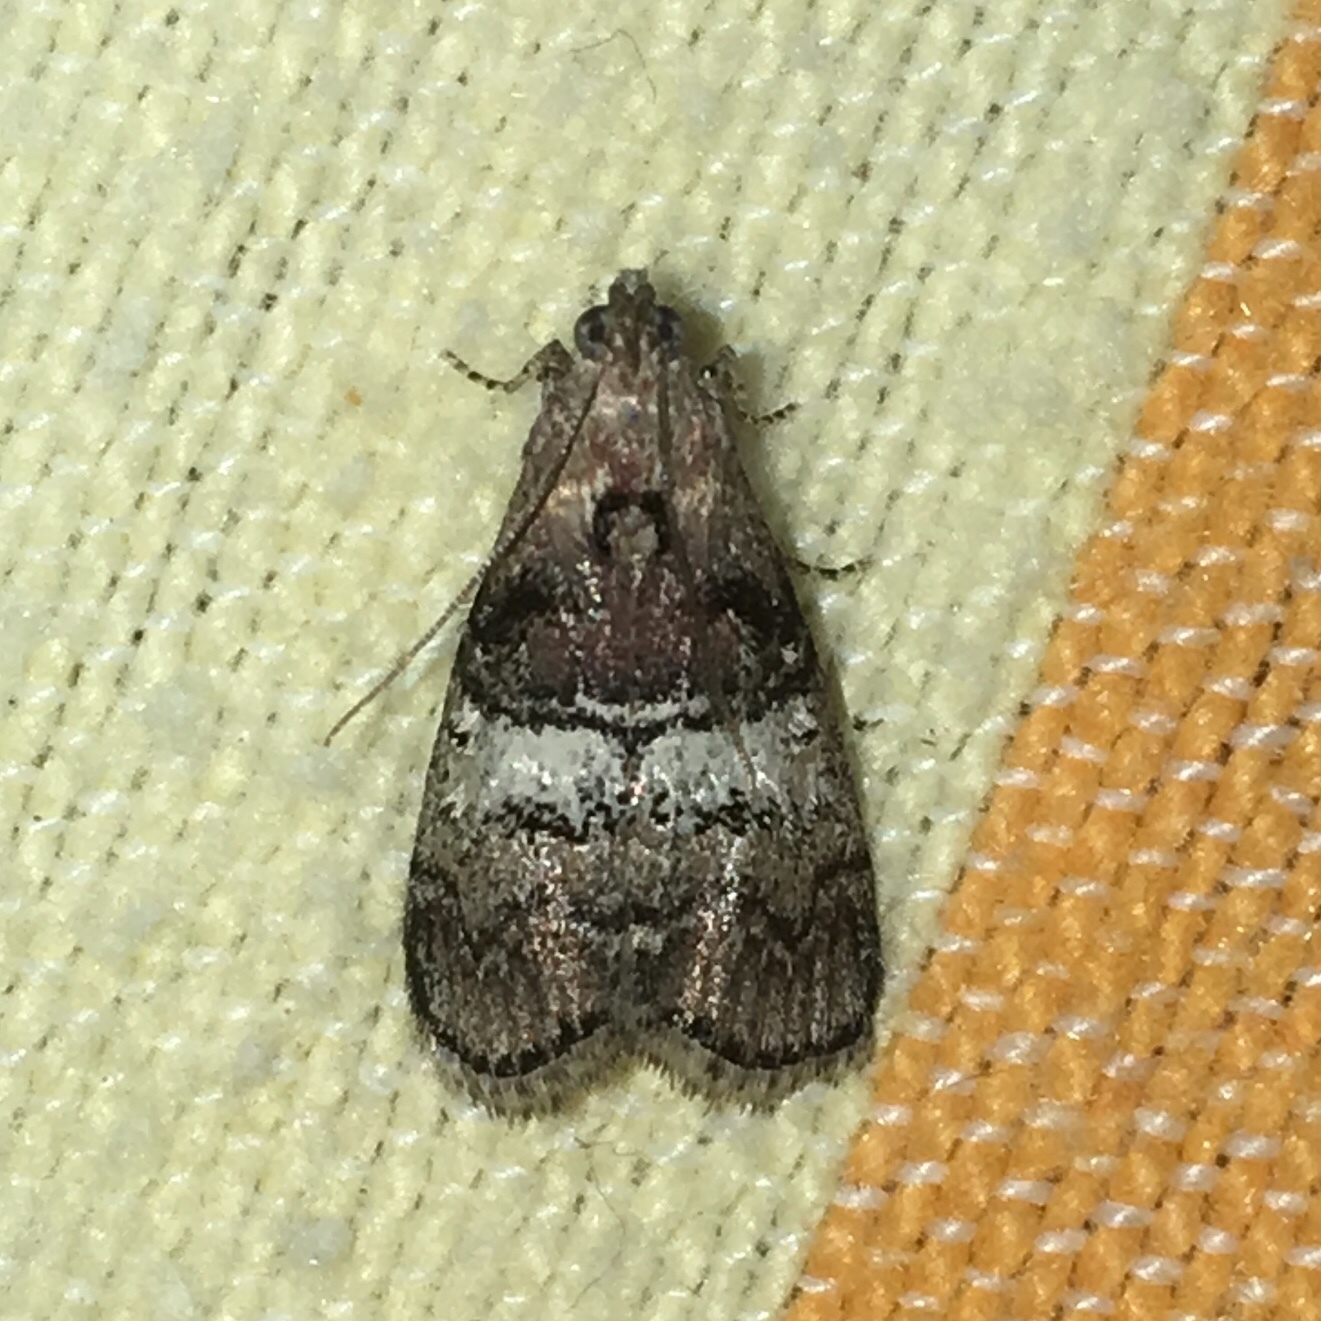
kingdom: Animalia
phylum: Arthropoda
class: Insecta
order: Lepidoptera
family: Pyralidae
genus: Pococera
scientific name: Pococera asperatella
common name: Maple webworm moth
